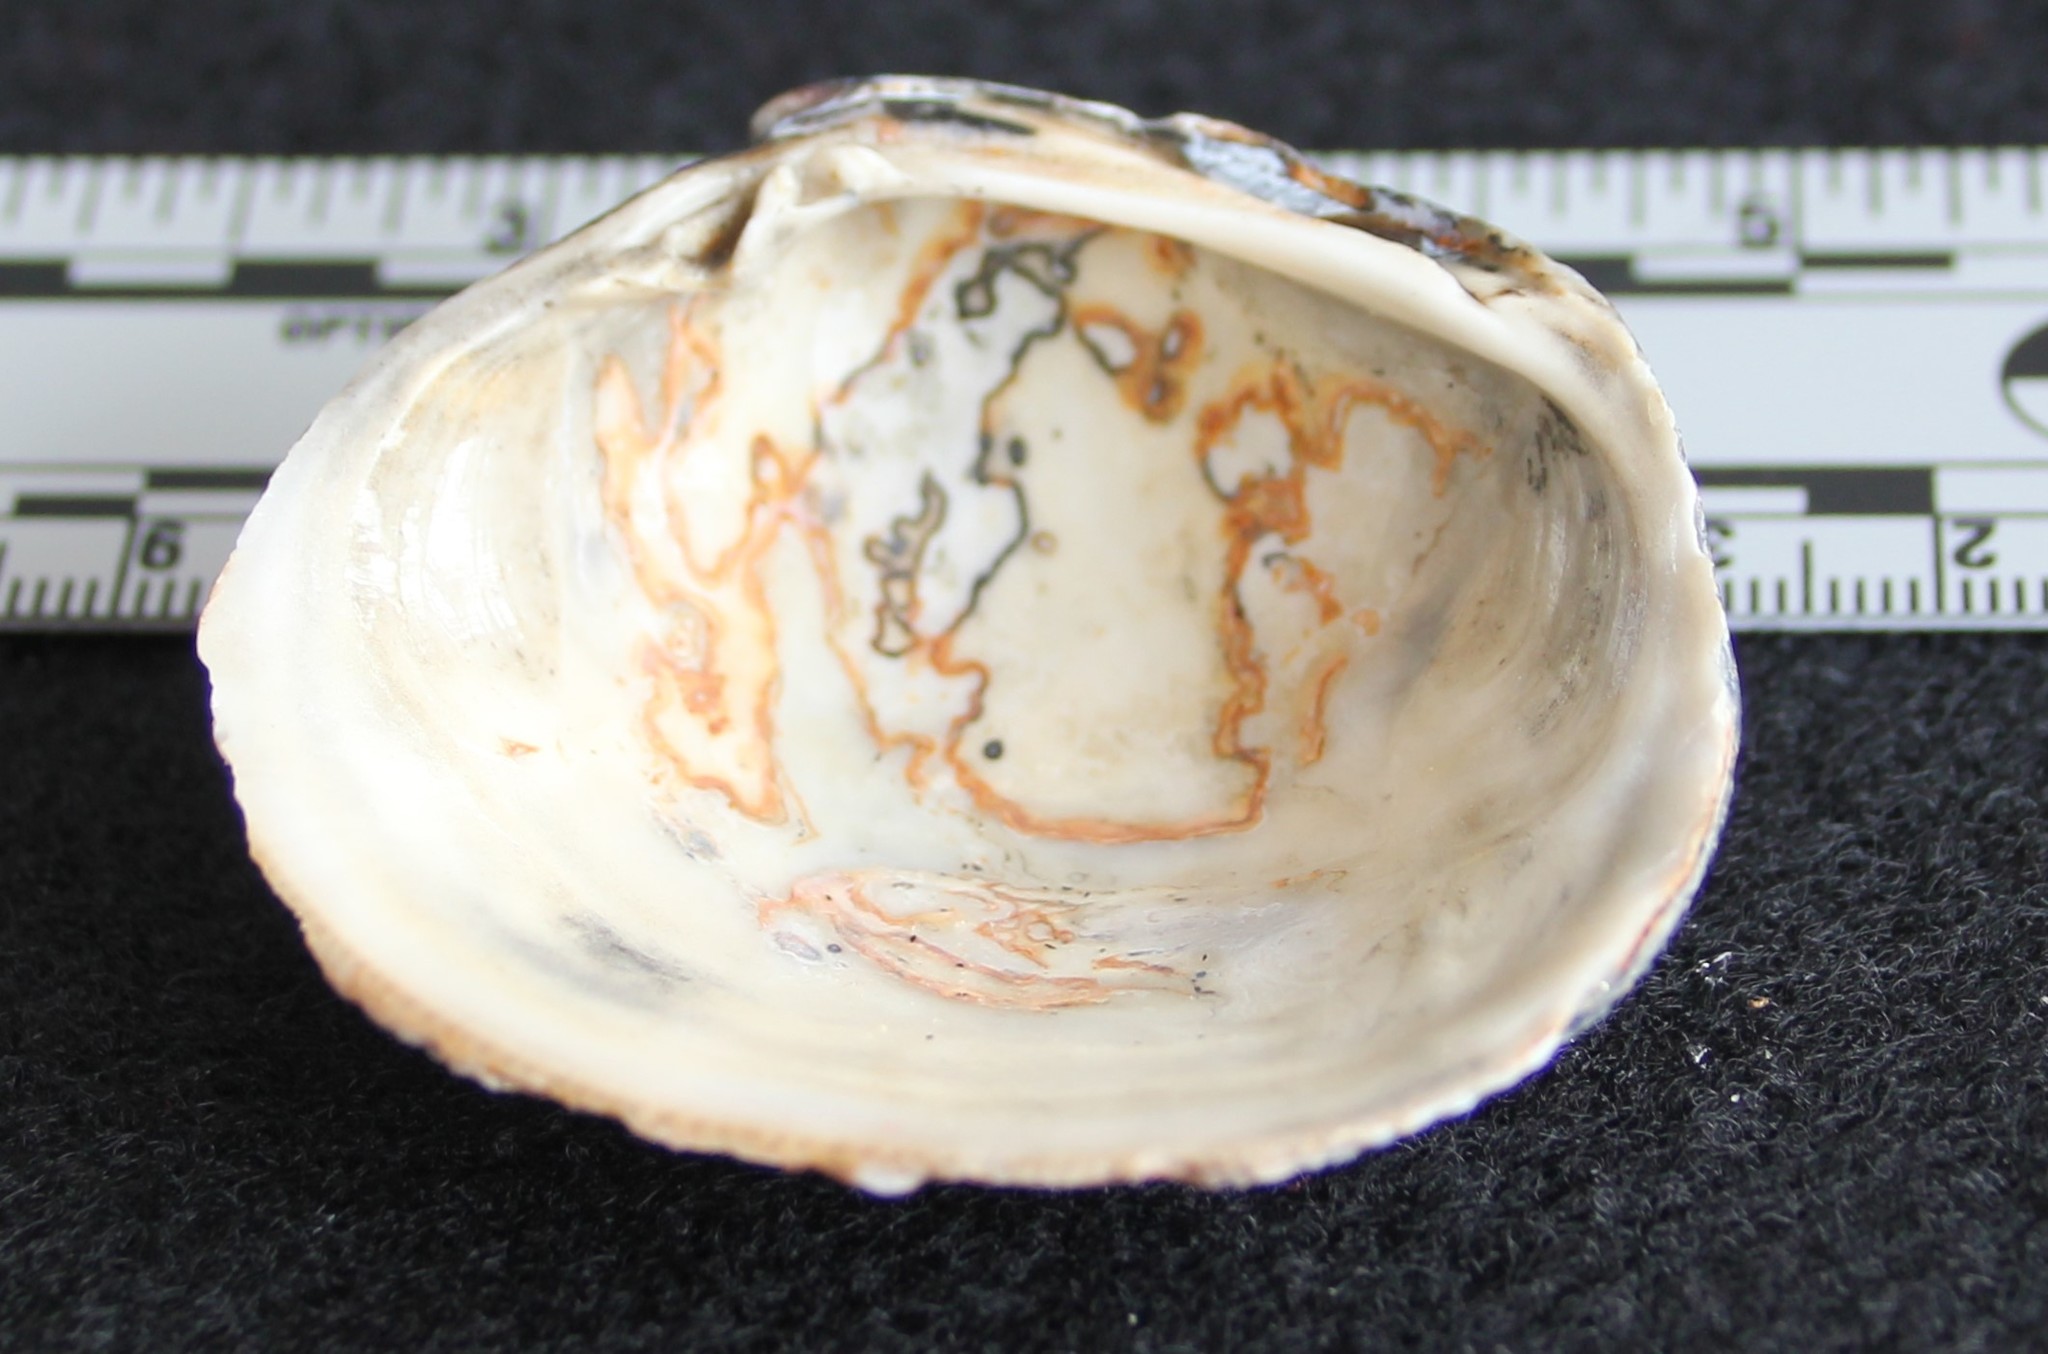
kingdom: Animalia
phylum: Mollusca
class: Bivalvia
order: Venerida
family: Veneridae
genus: Leukoma
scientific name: Leukoma staminea
